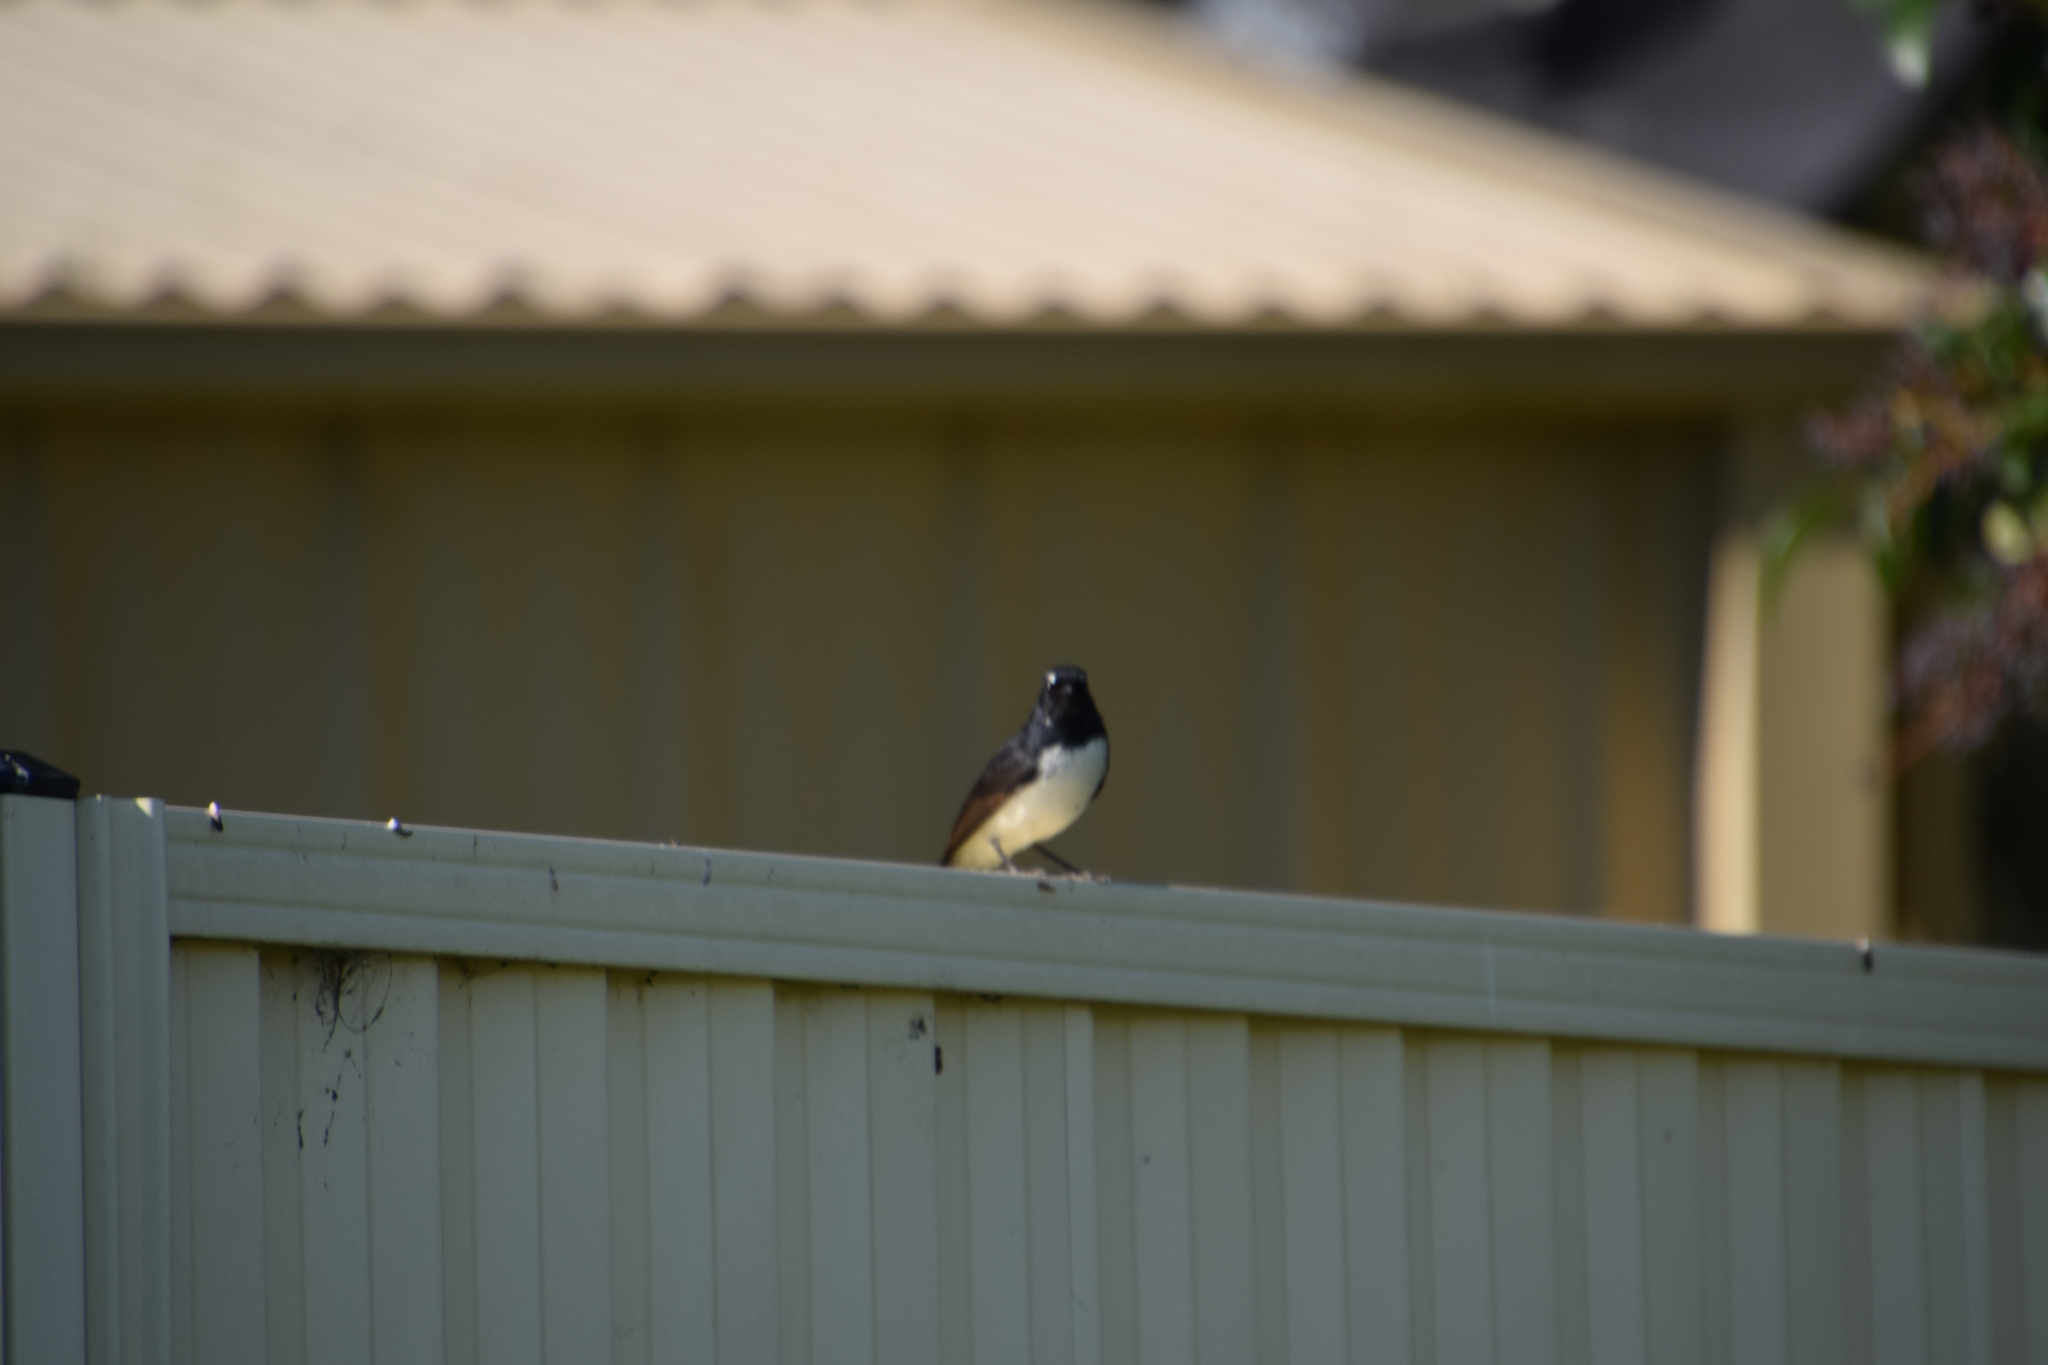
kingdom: Animalia
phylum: Chordata
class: Aves
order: Passeriformes
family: Rhipiduridae
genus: Rhipidura
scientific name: Rhipidura leucophrys
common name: Willie wagtail
